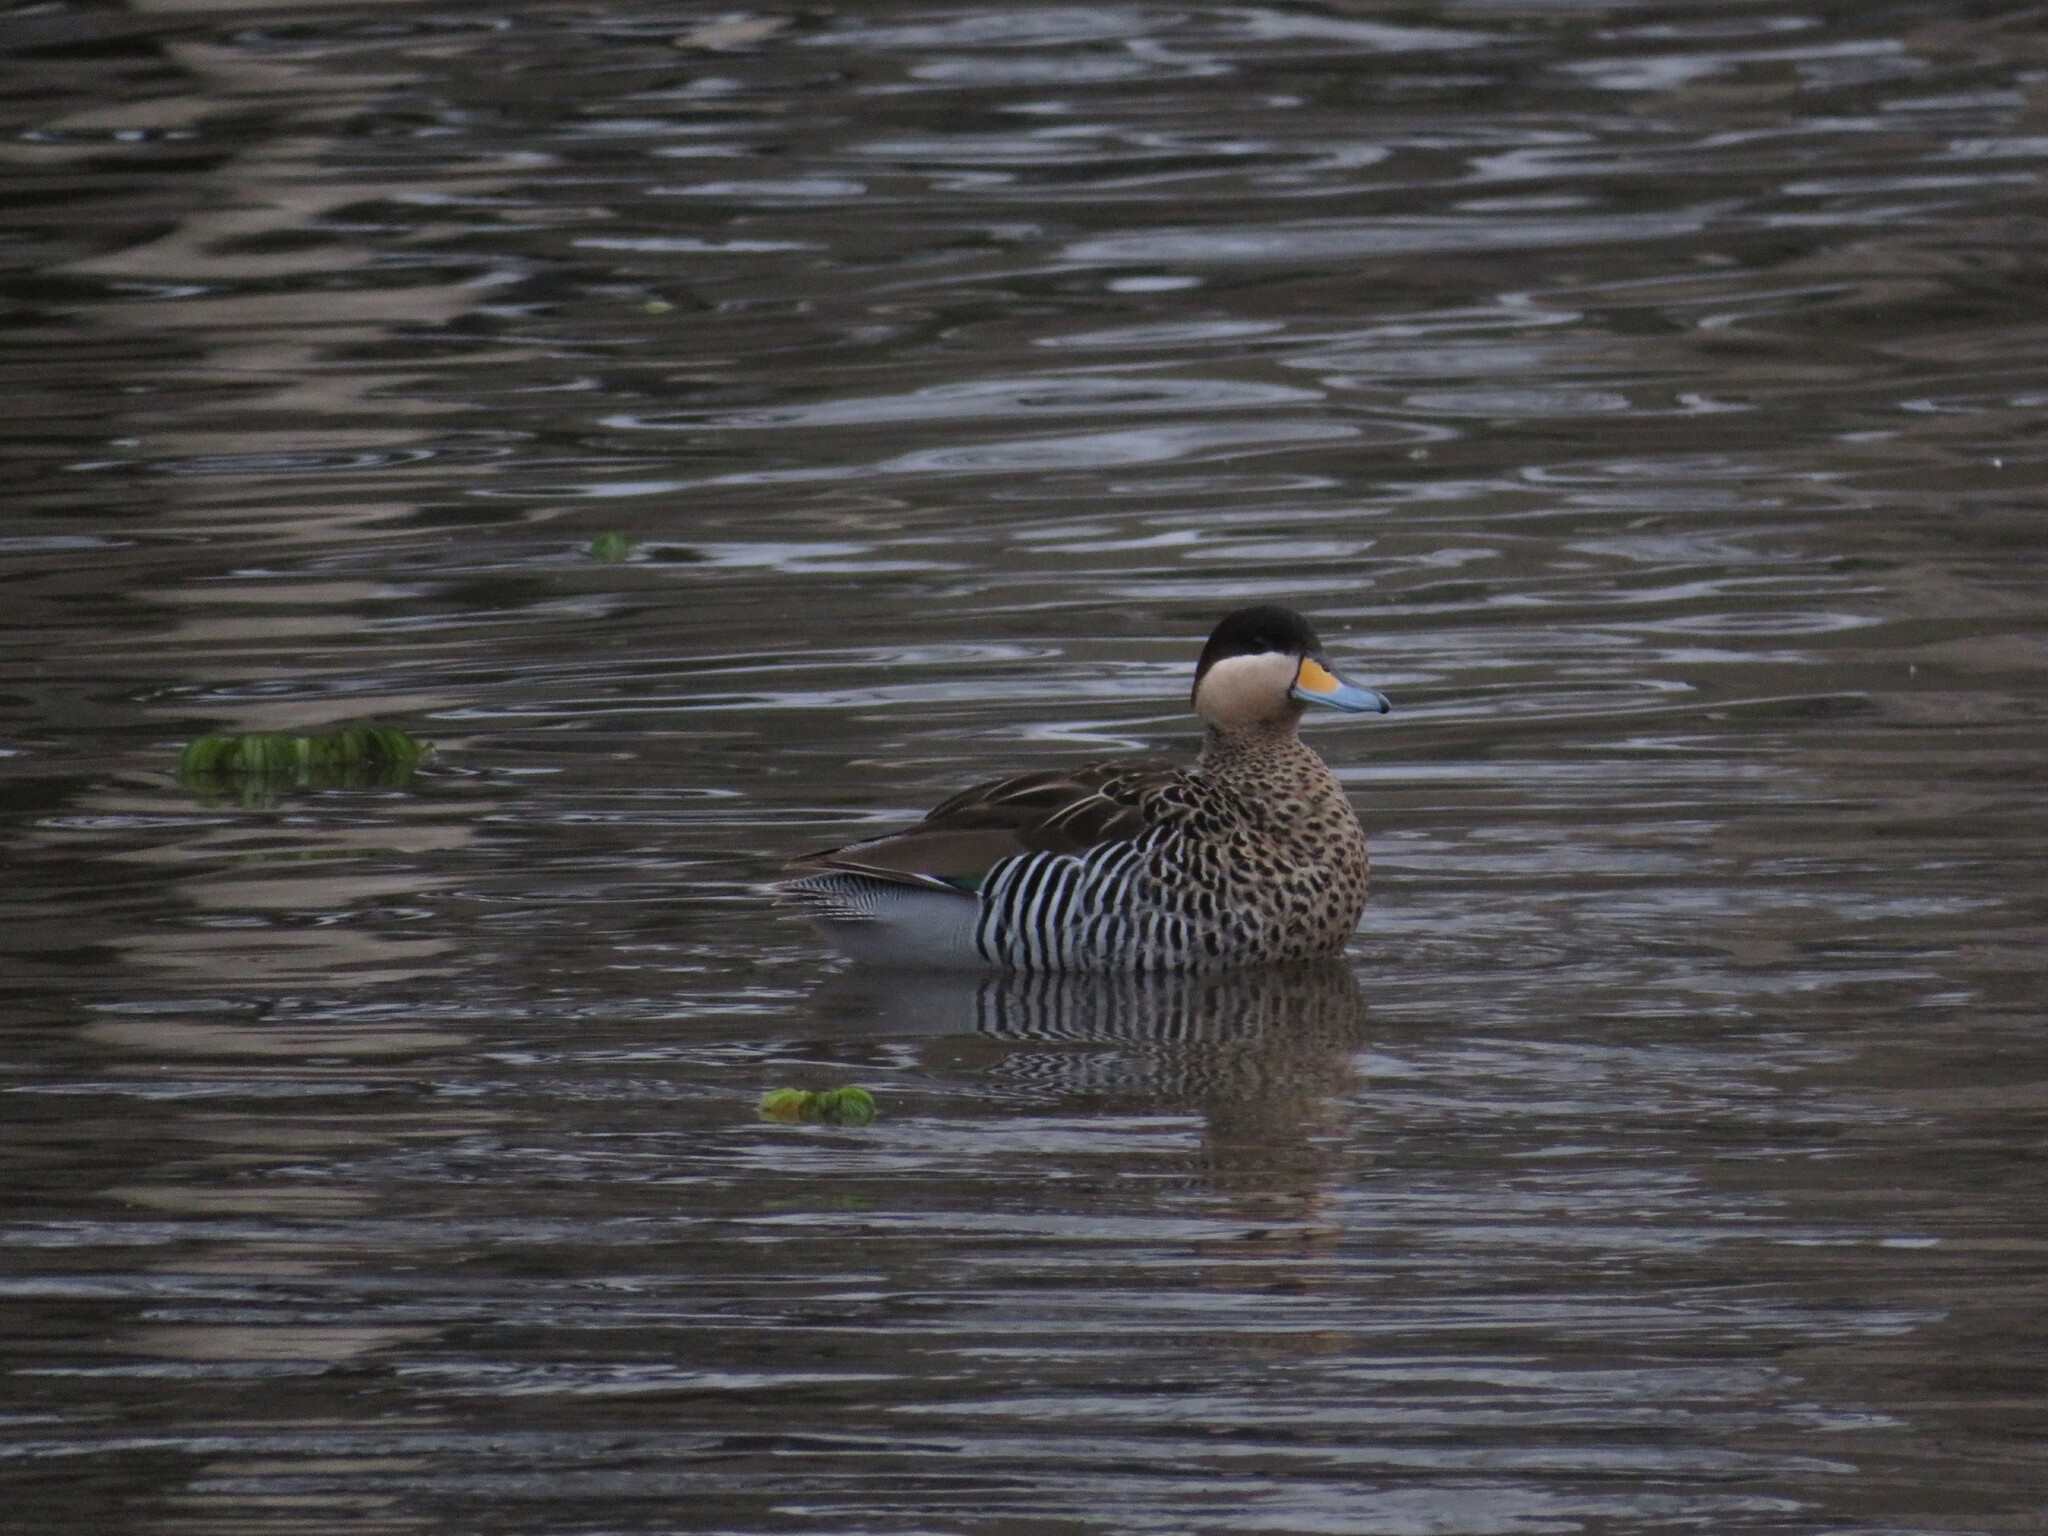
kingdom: Animalia
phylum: Chordata
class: Aves
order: Anseriformes
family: Anatidae
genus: Spatula
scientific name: Spatula versicolor
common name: Silver teal
